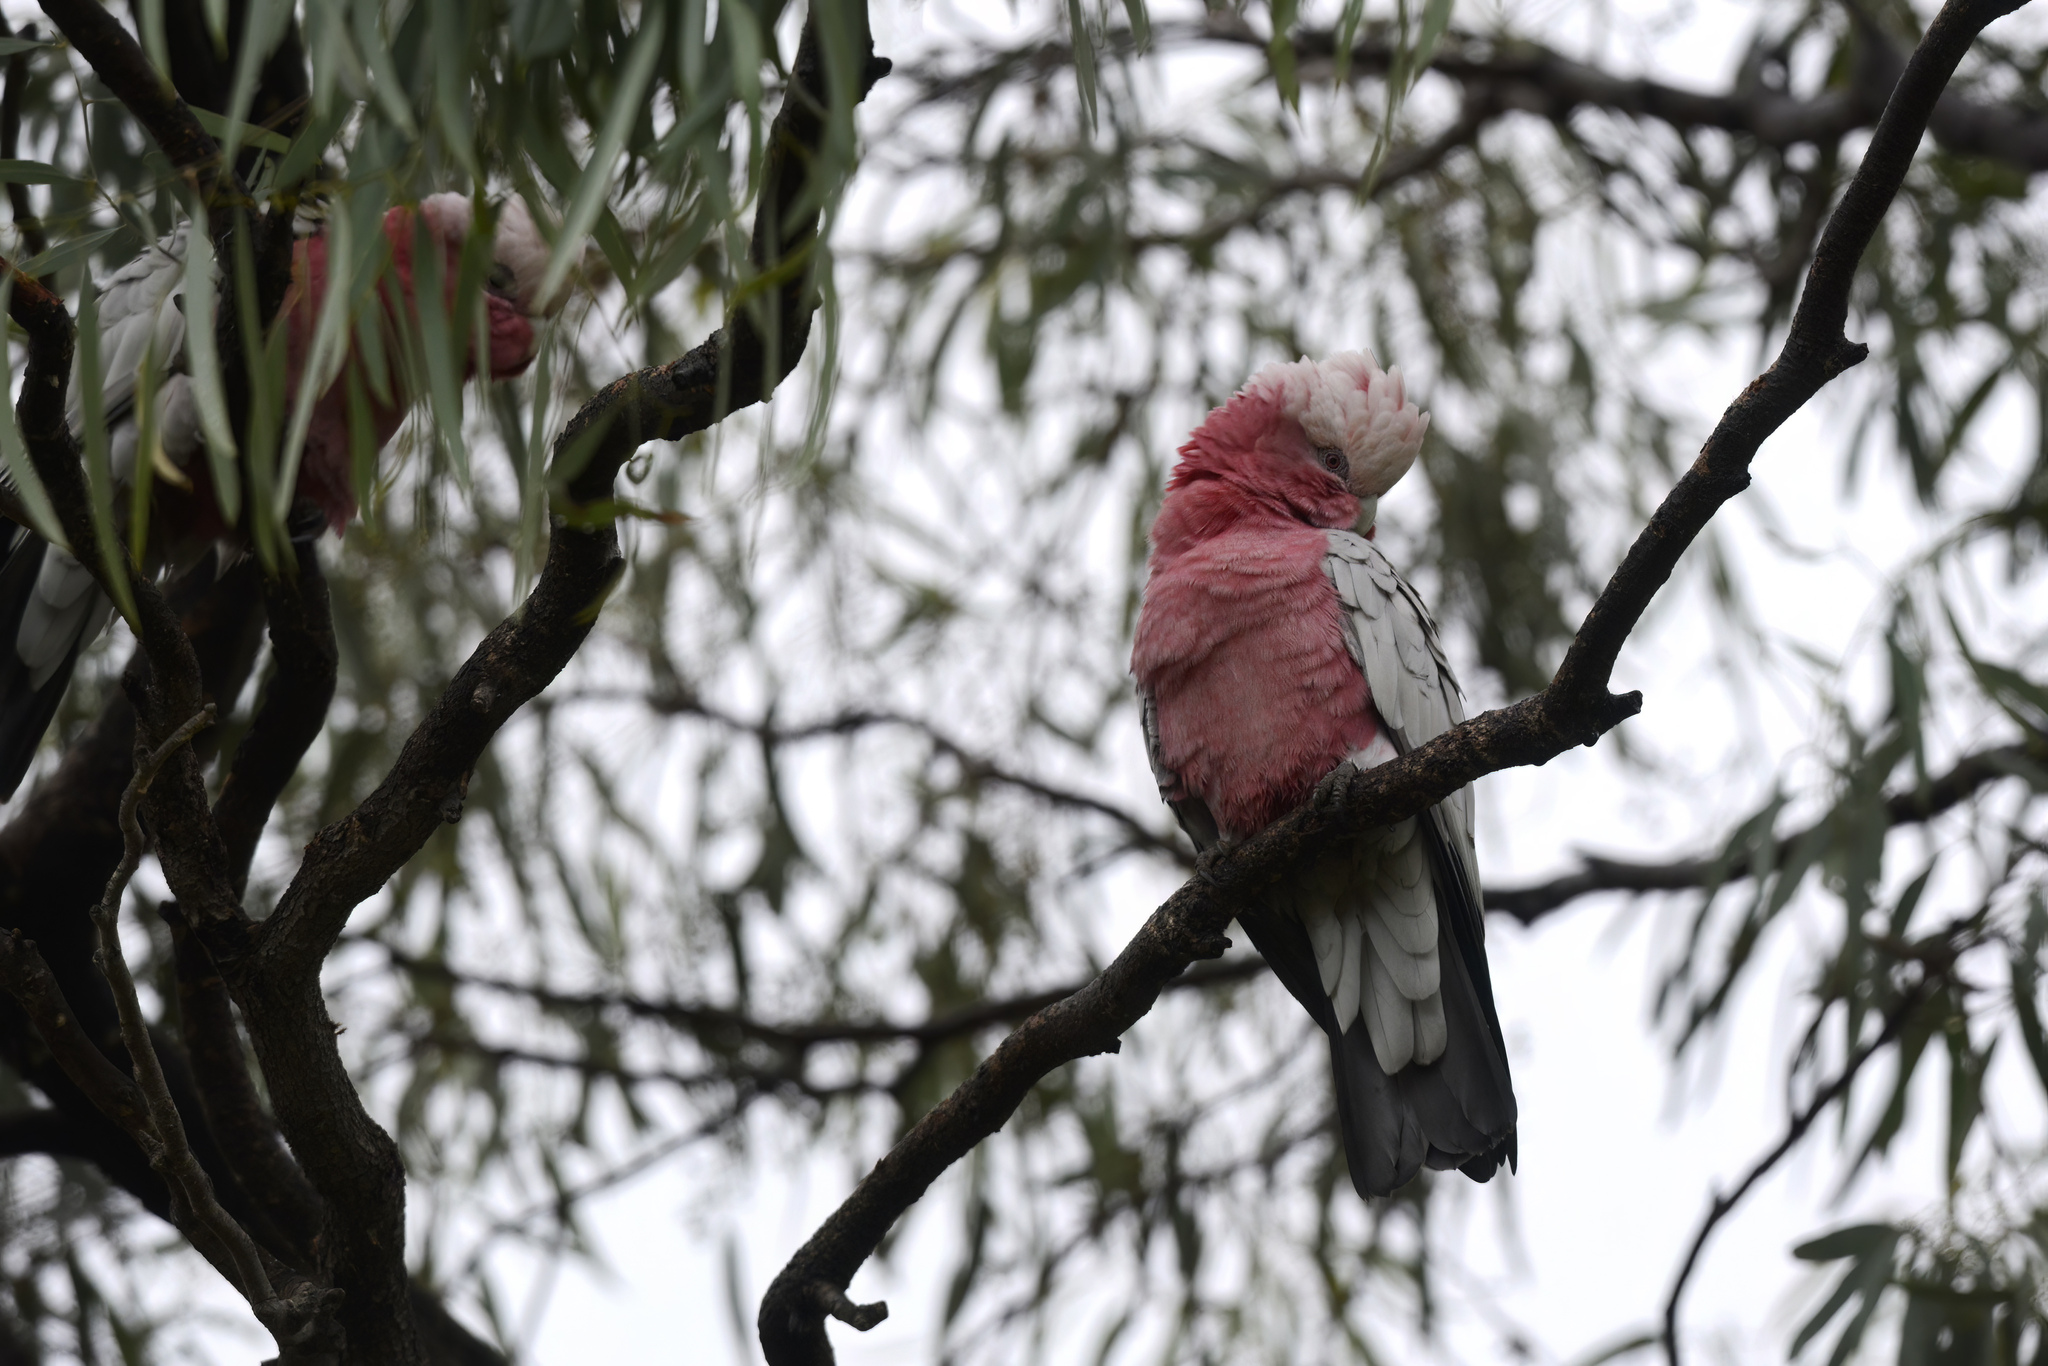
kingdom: Animalia
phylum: Chordata
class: Aves
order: Psittaciformes
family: Psittacidae
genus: Eolophus
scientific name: Eolophus roseicapilla
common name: Galah
